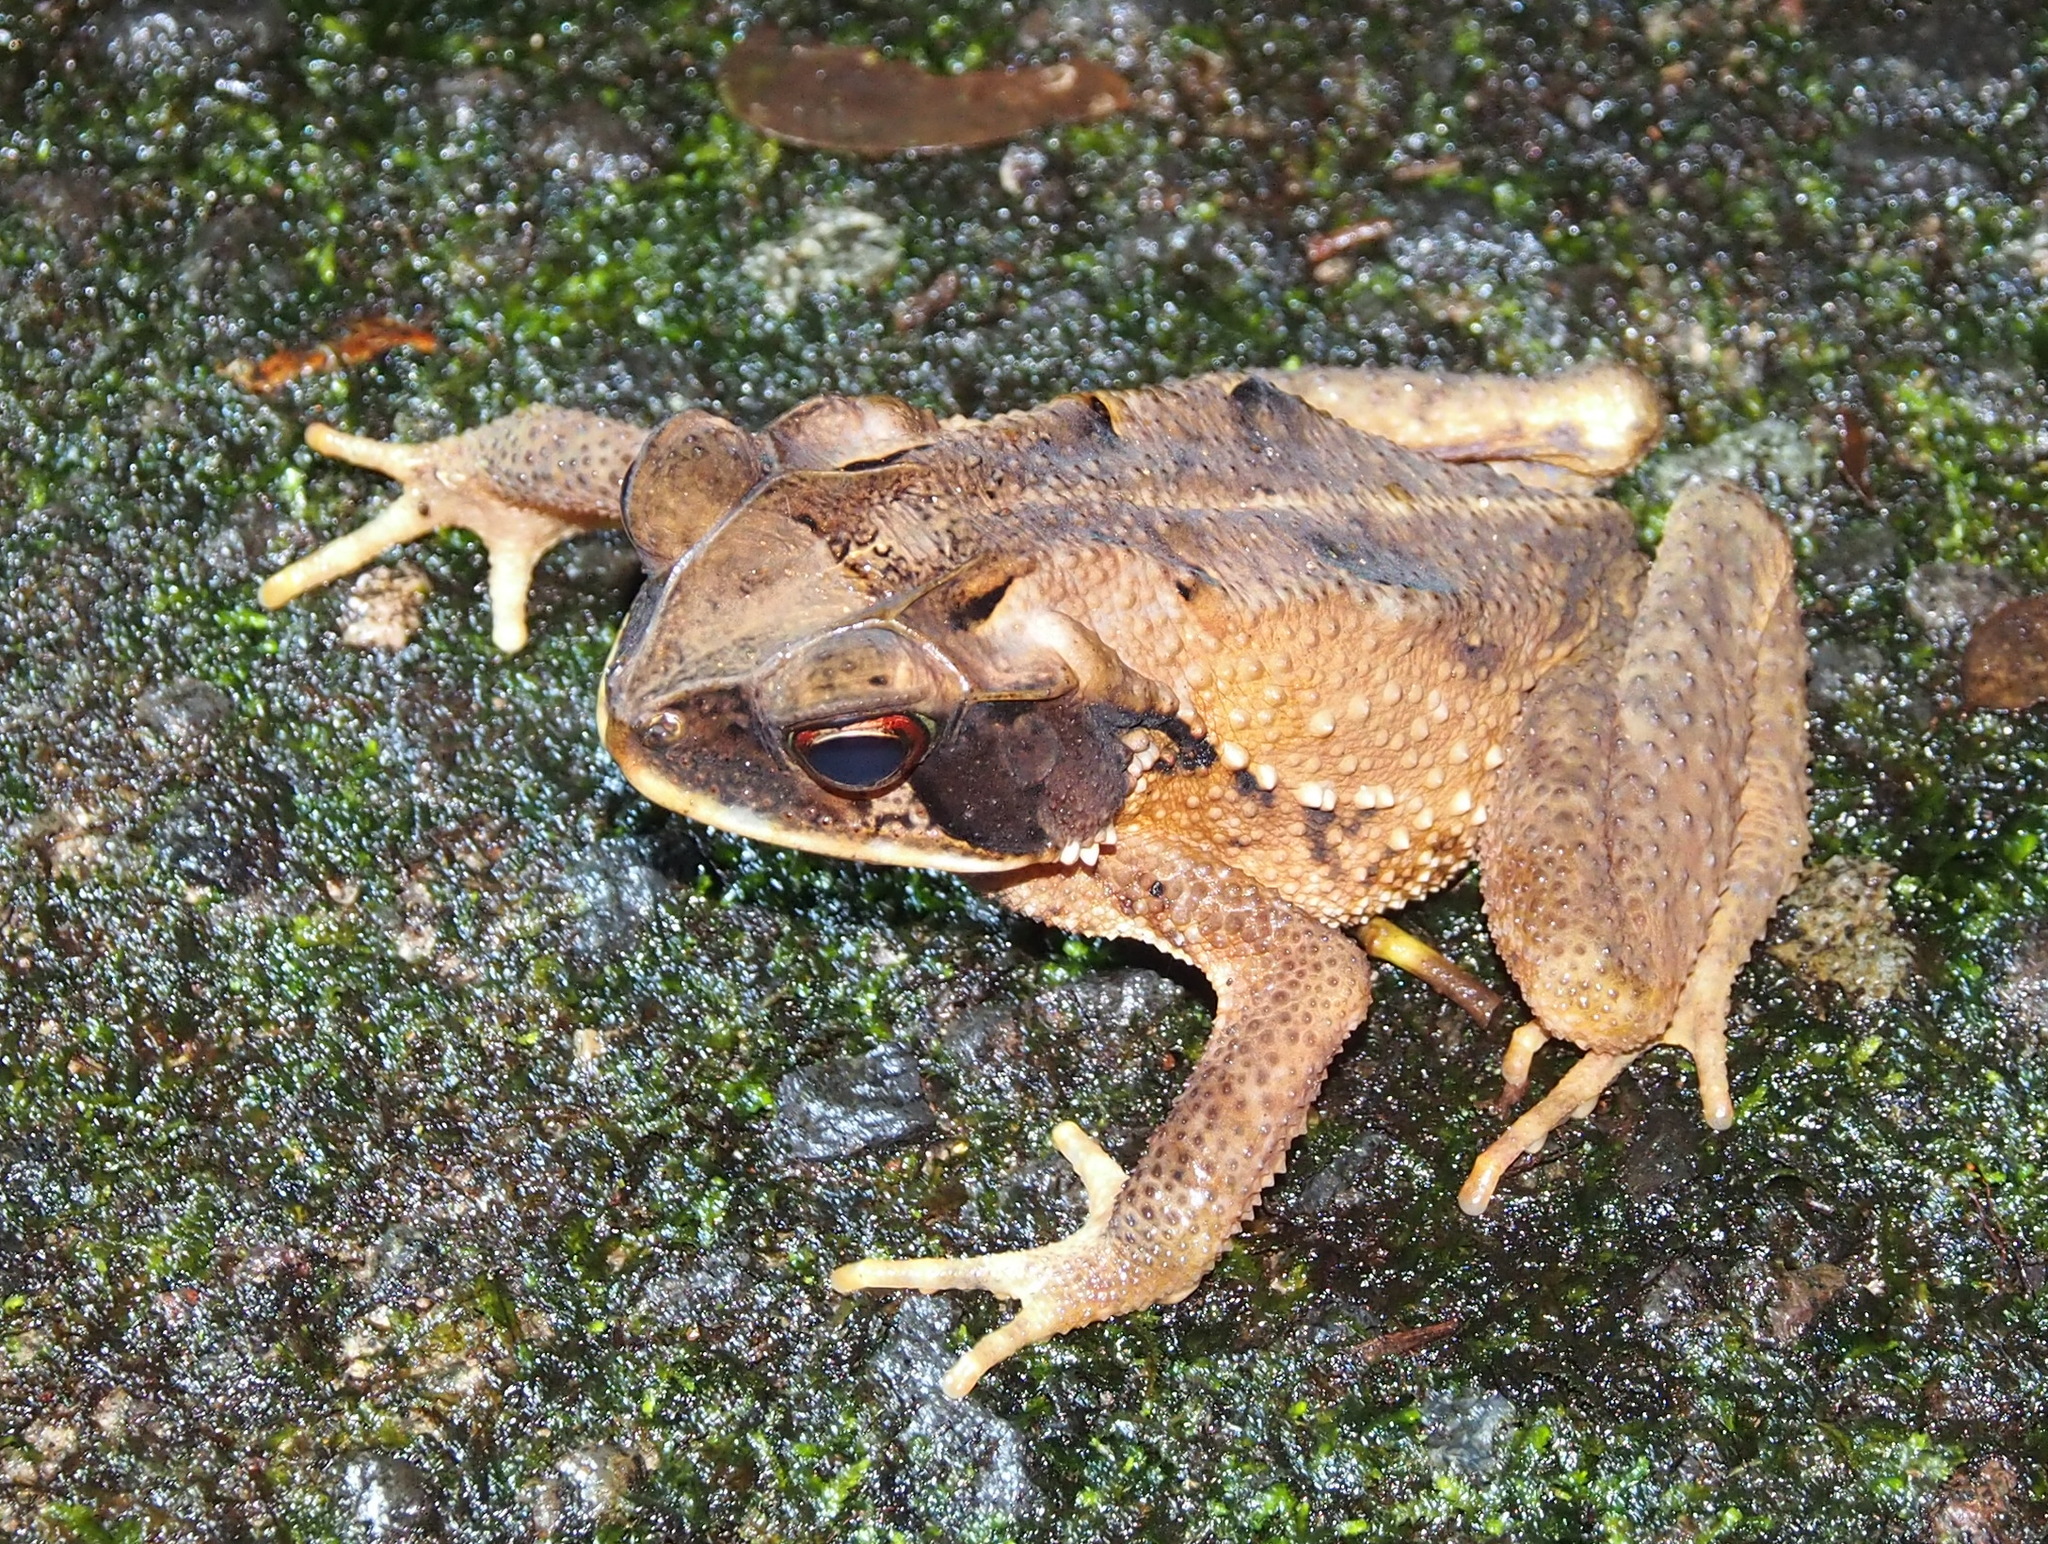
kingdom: Animalia
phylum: Chordata
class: Amphibia
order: Anura
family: Bufonidae
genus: Incilius
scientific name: Incilius melanochlorus
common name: Dark green toad
